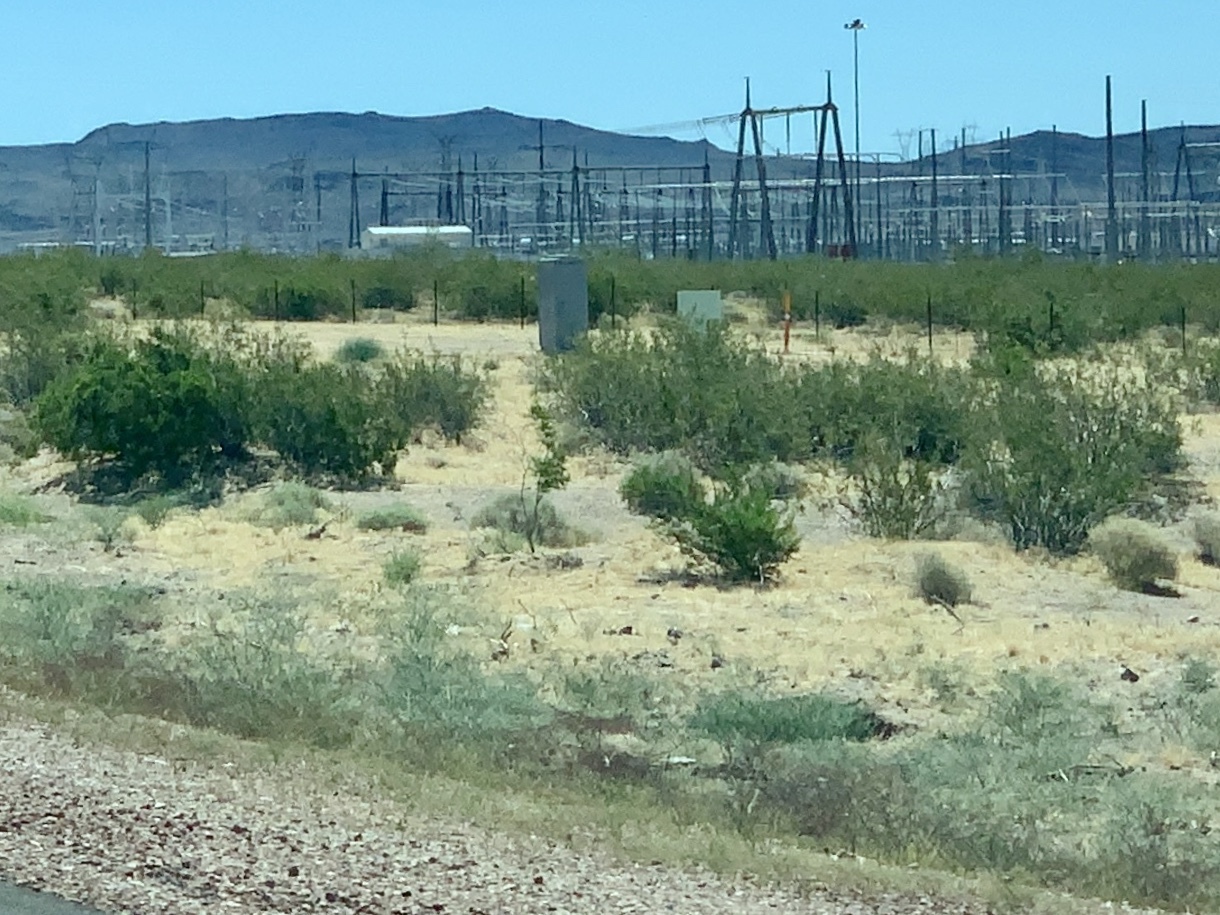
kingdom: Plantae
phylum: Tracheophyta
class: Magnoliopsida
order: Zygophyllales
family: Zygophyllaceae
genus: Larrea
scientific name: Larrea tridentata
